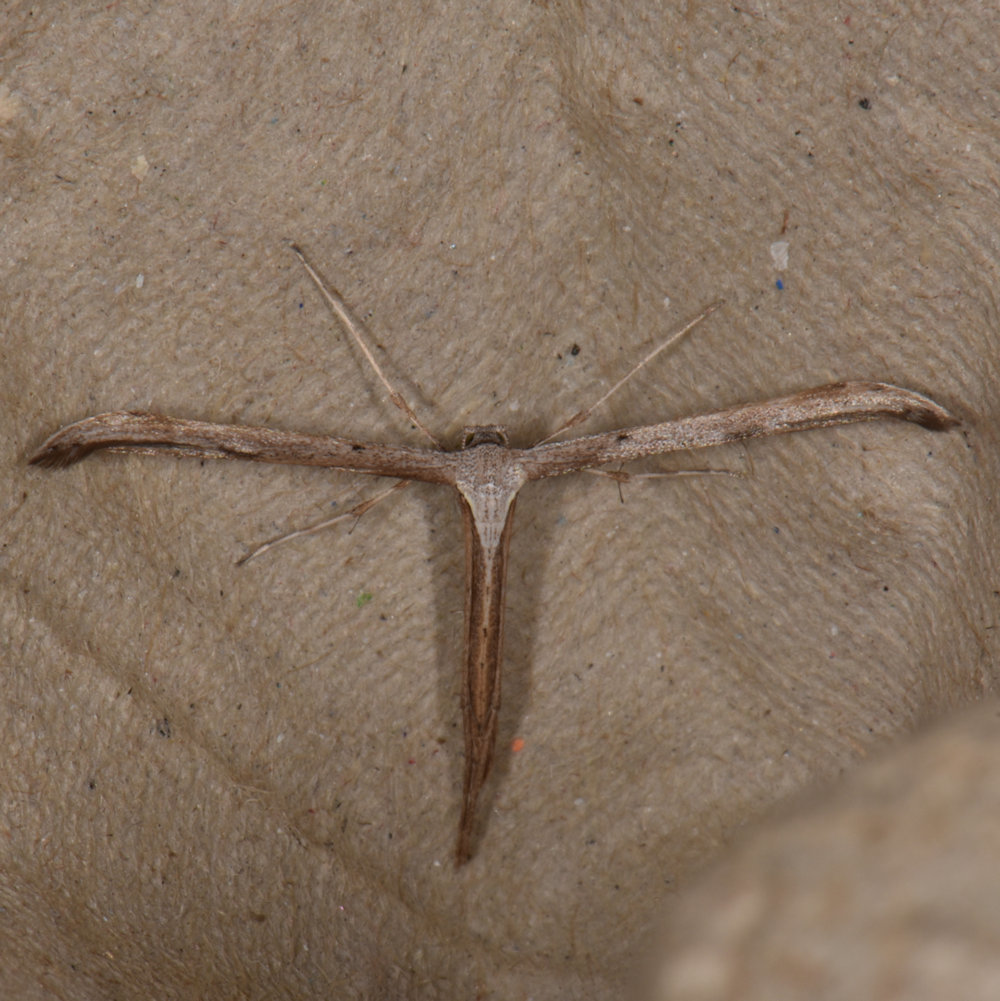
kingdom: Animalia
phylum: Arthropoda
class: Insecta
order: Lepidoptera
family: Pterophoridae
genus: Emmelina
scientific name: Emmelina monodactyla
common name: Common plume
